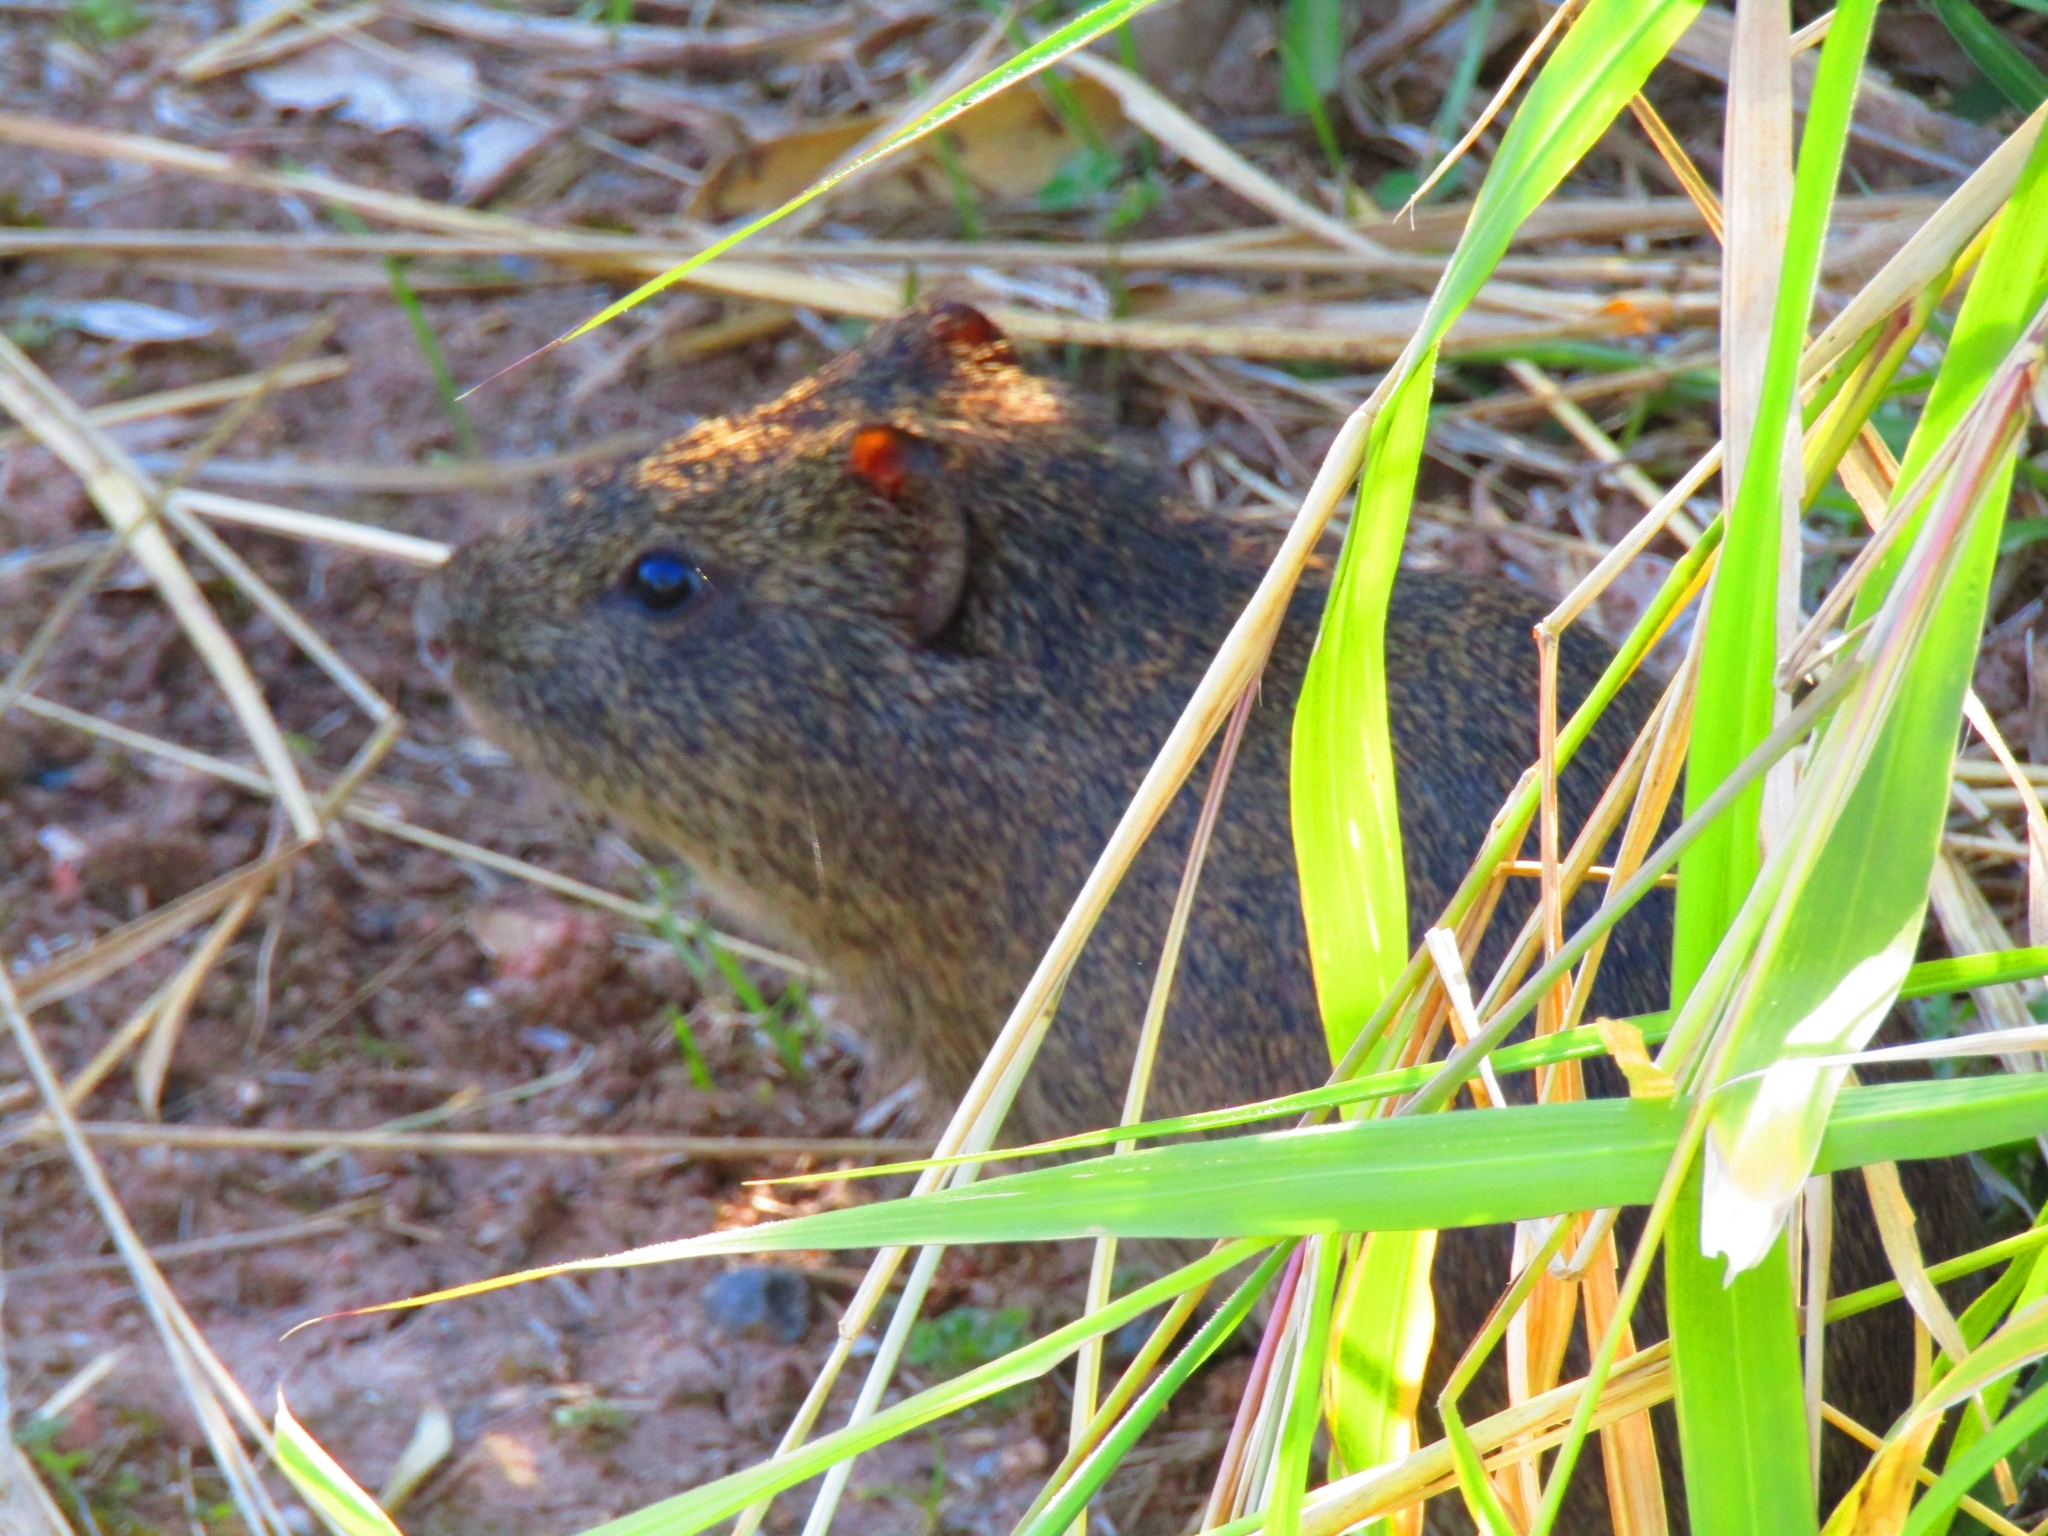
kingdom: Animalia
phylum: Chordata
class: Mammalia
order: Rodentia
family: Caviidae
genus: Cavia
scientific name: Cavia aperea
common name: Brazilian guinea pig
